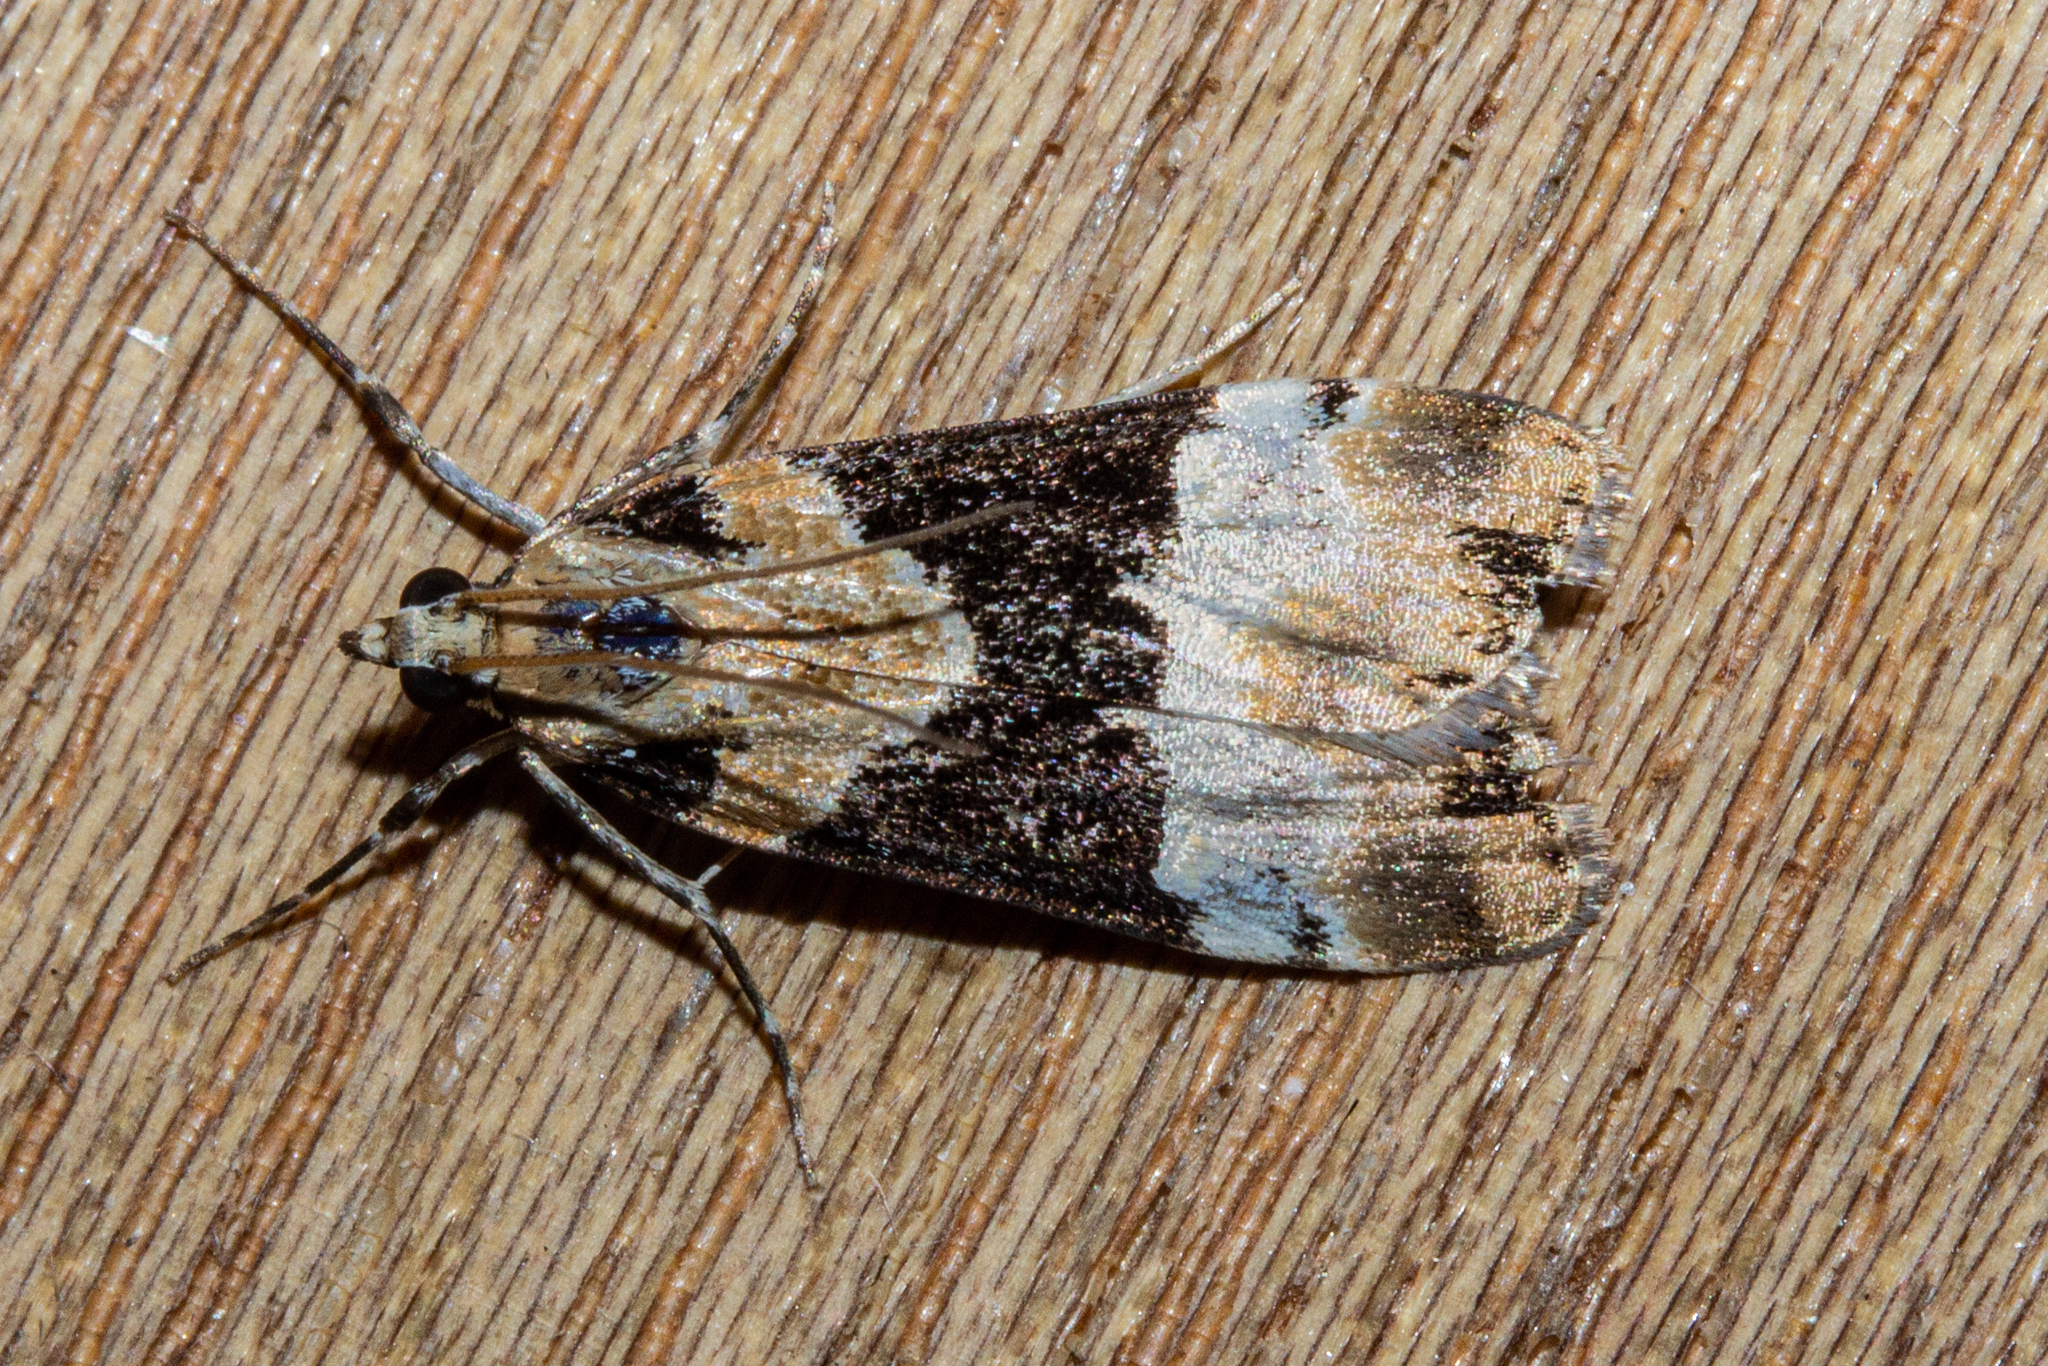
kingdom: Animalia
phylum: Arthropoda
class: Insecta
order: Lepidoptera
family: Crambidae
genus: Eudonia
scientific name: Eudonia aspidota
